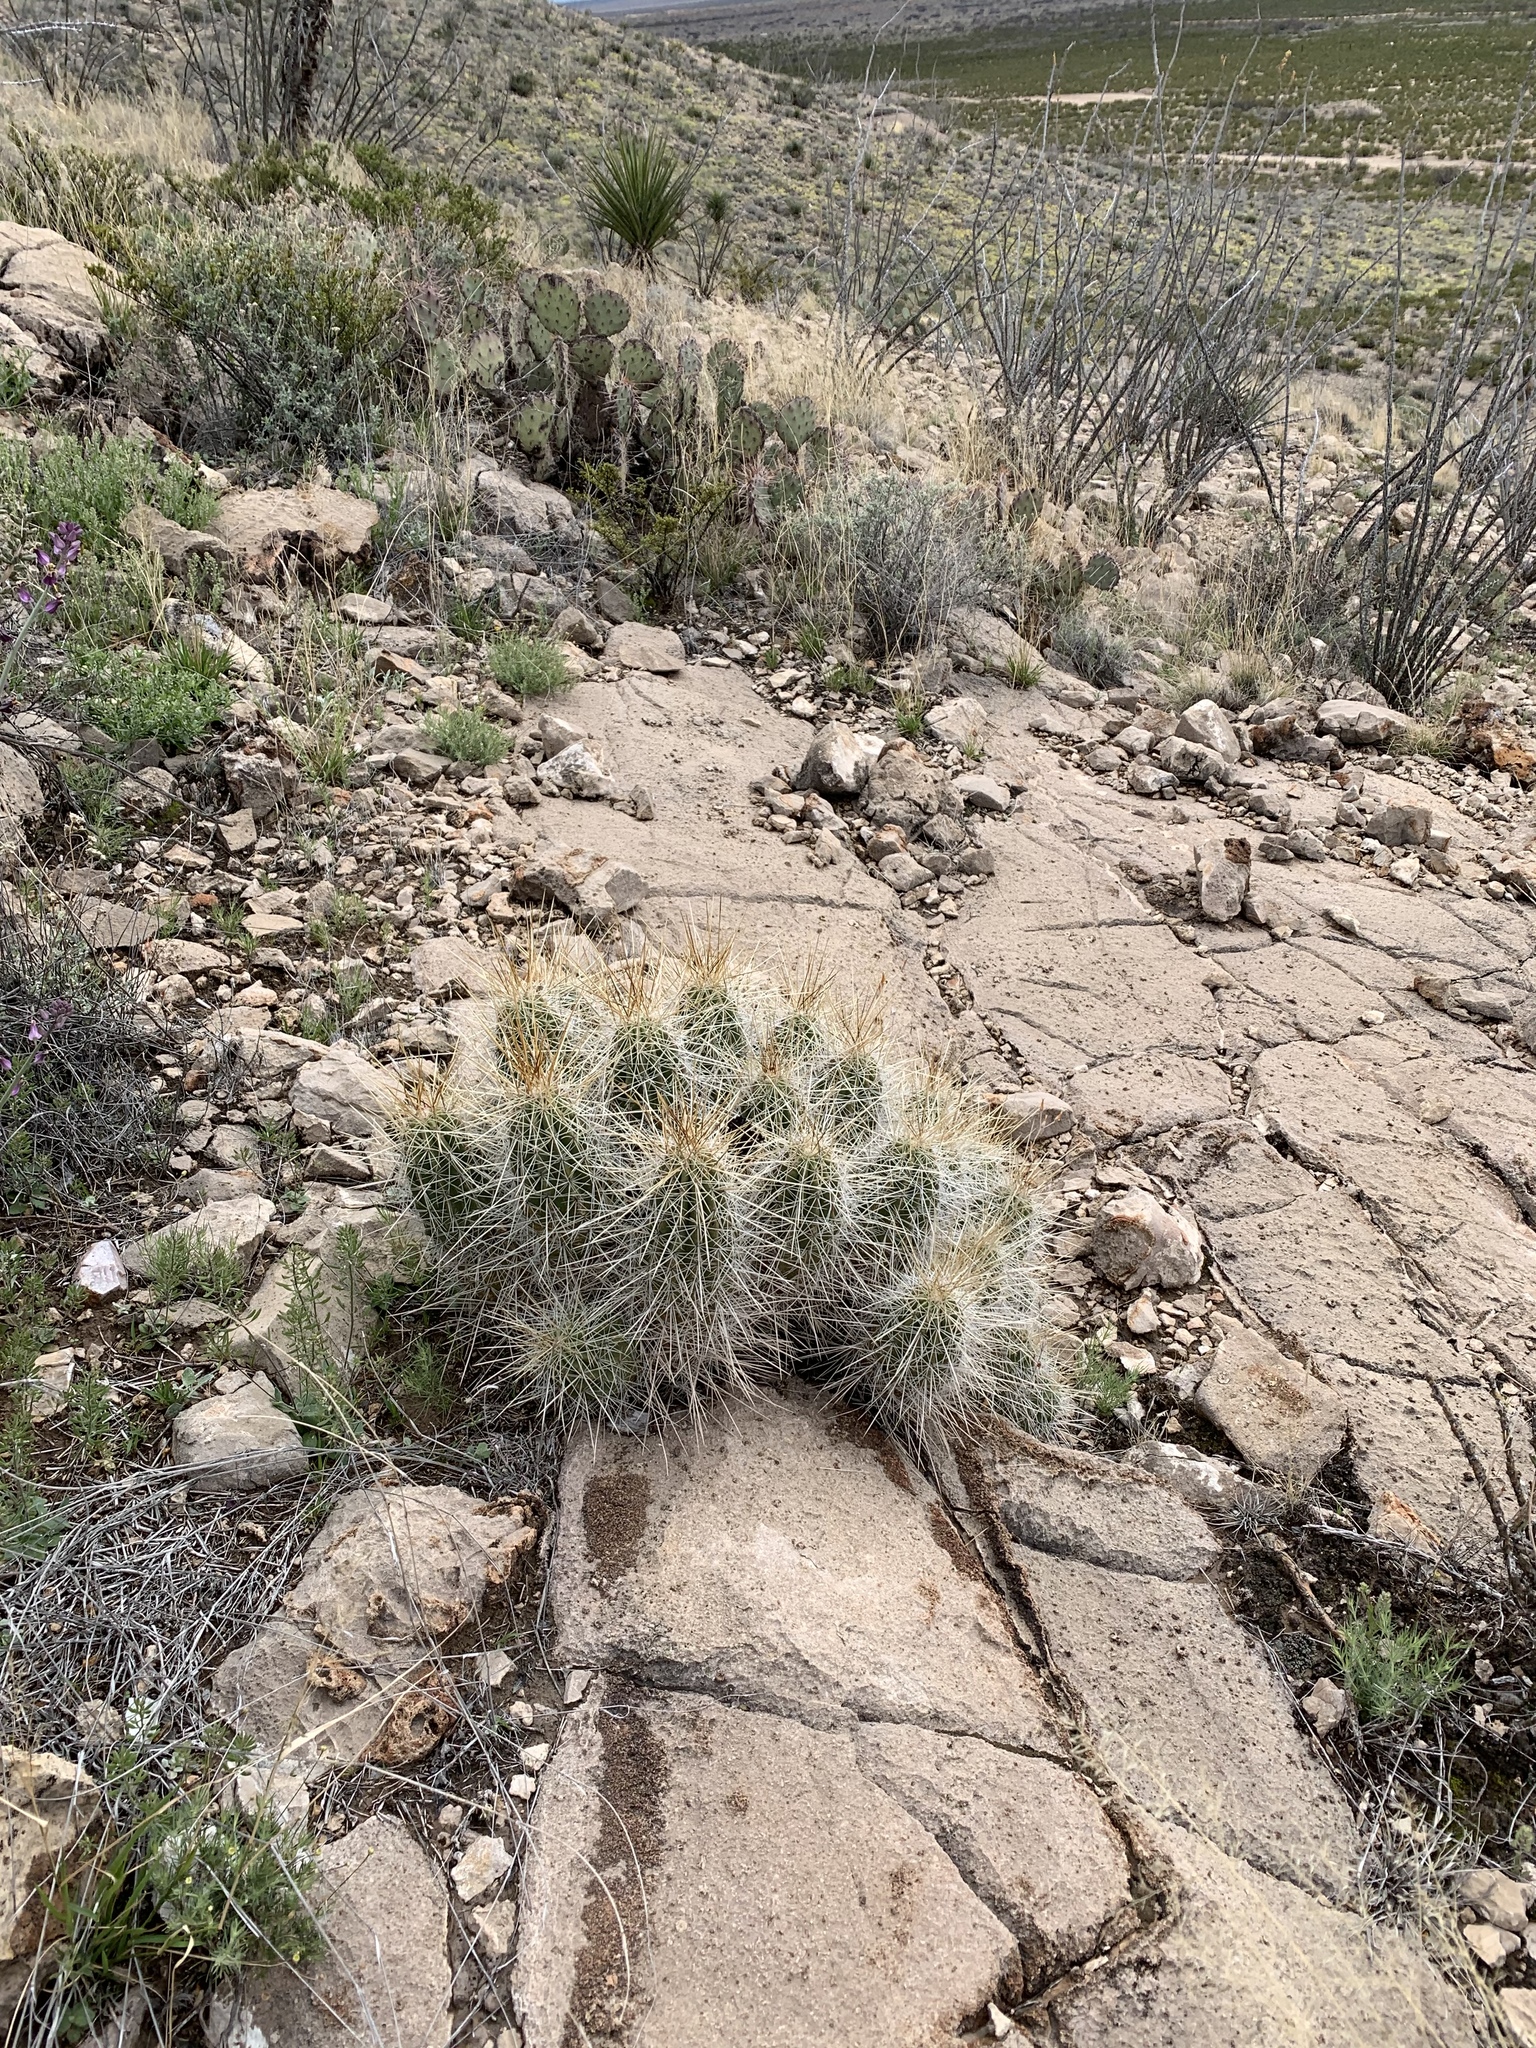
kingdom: Plantae
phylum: Tracheophyta
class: Magnoliopsida
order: Caryophyllales
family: Cactaceae
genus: Echinocereus
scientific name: Echinocereus stramineus
